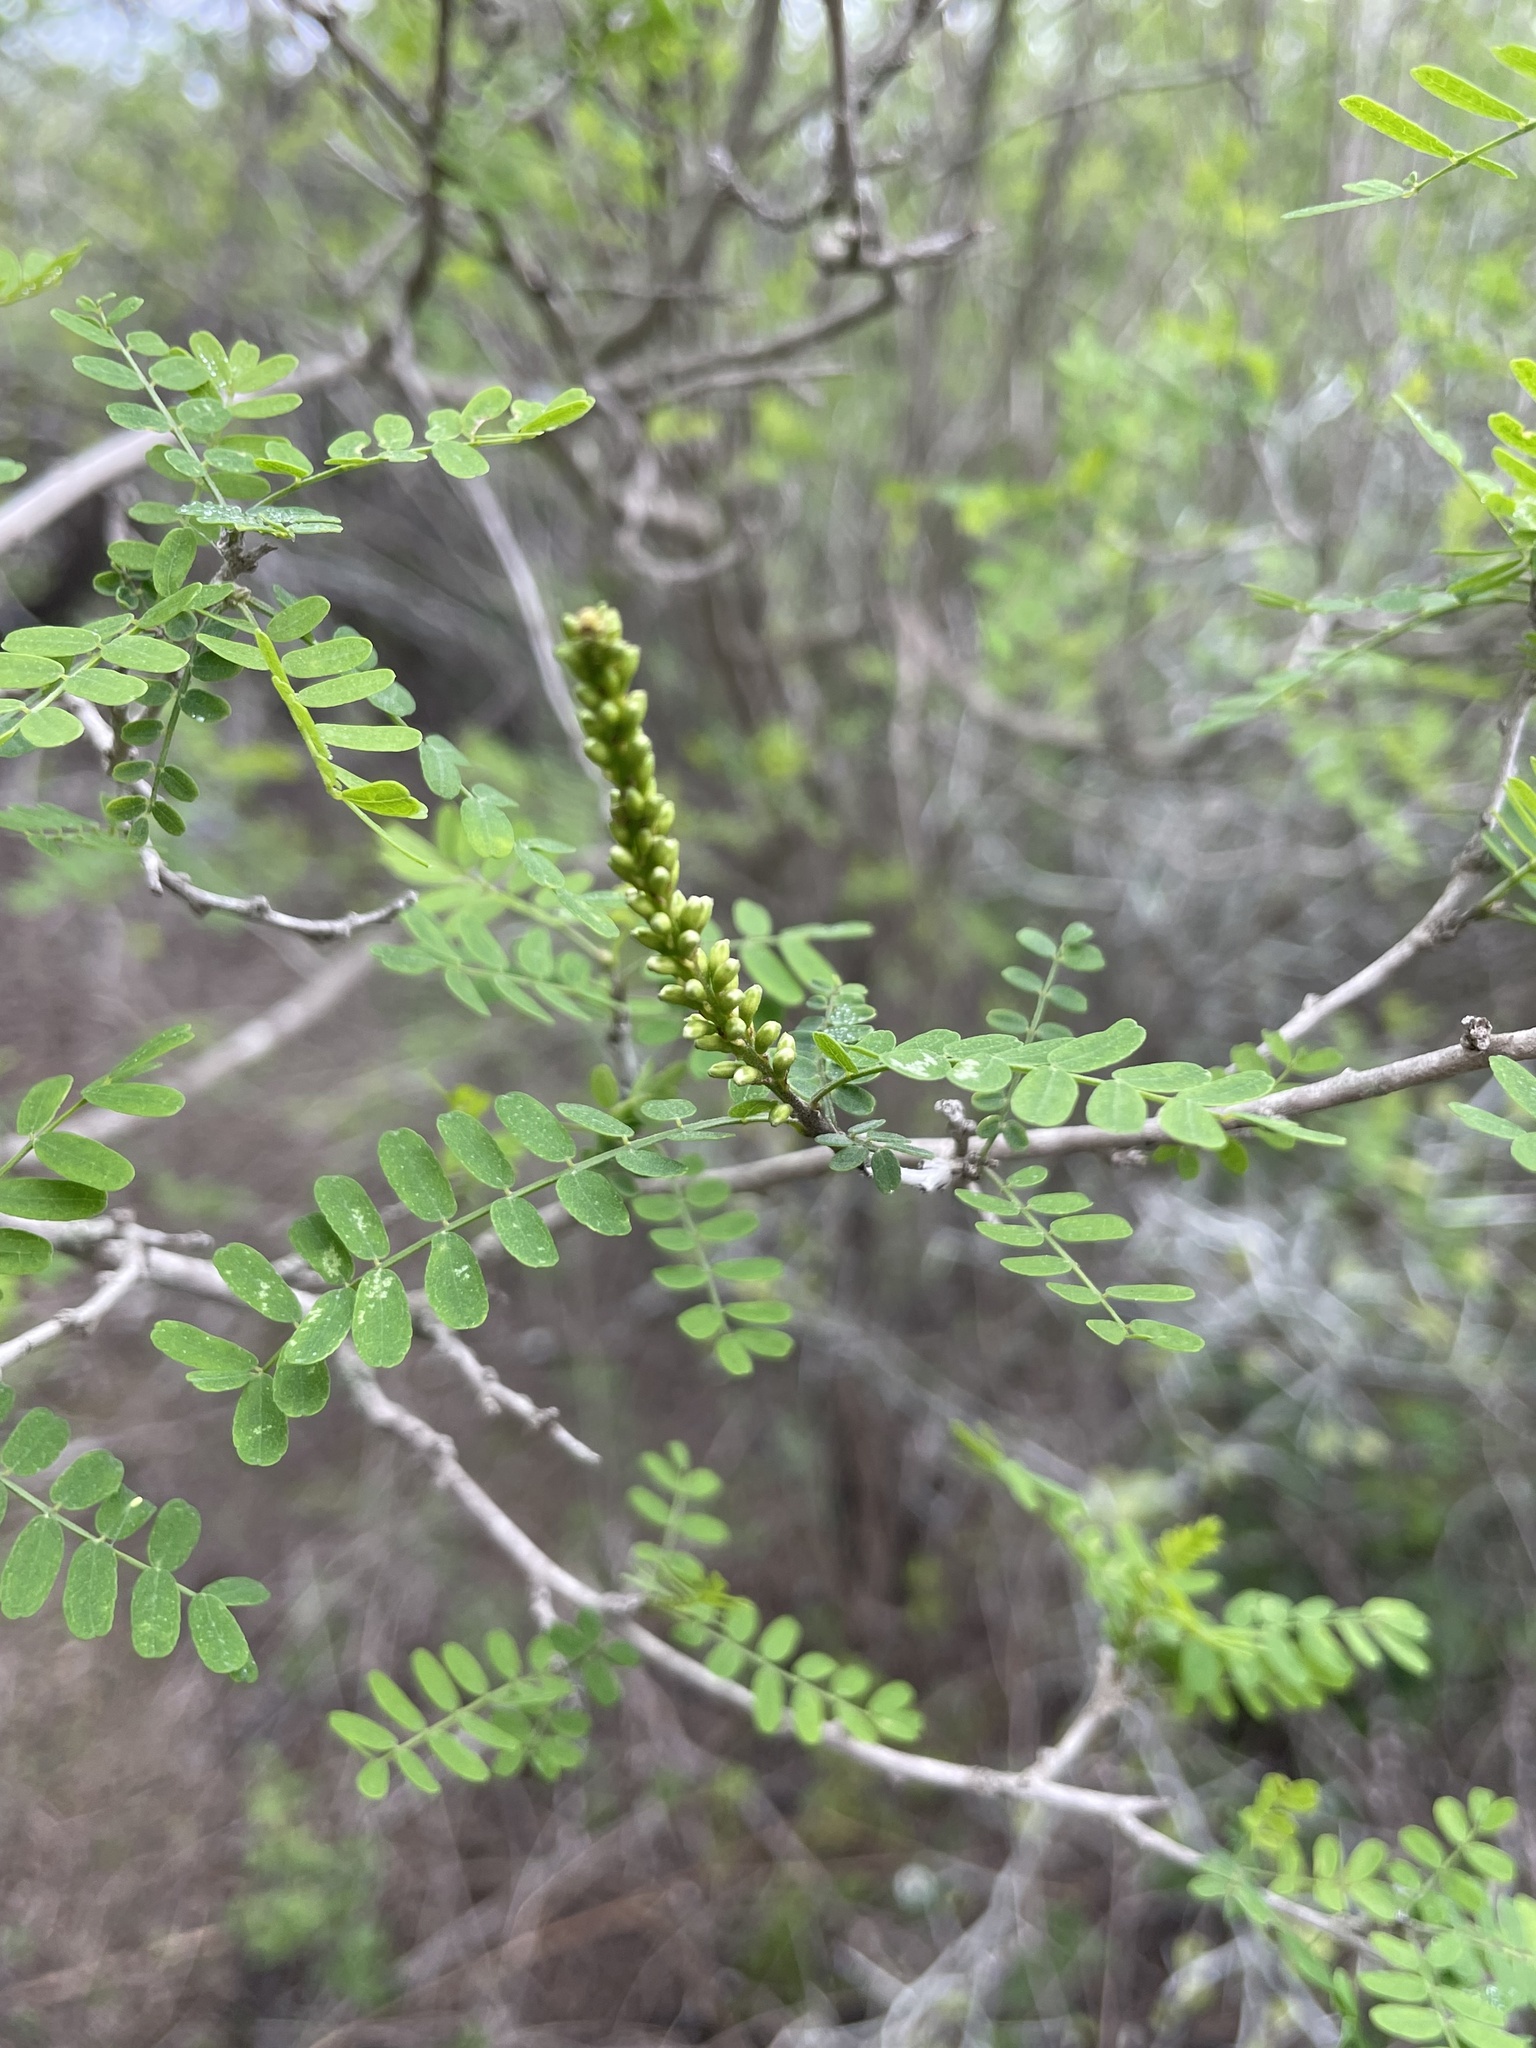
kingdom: Plantae
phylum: Tracheophyta
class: Magnoliopsida
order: Fabales
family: Fabaceae
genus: Eysenhardtia
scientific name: Eysenhardtia texana
